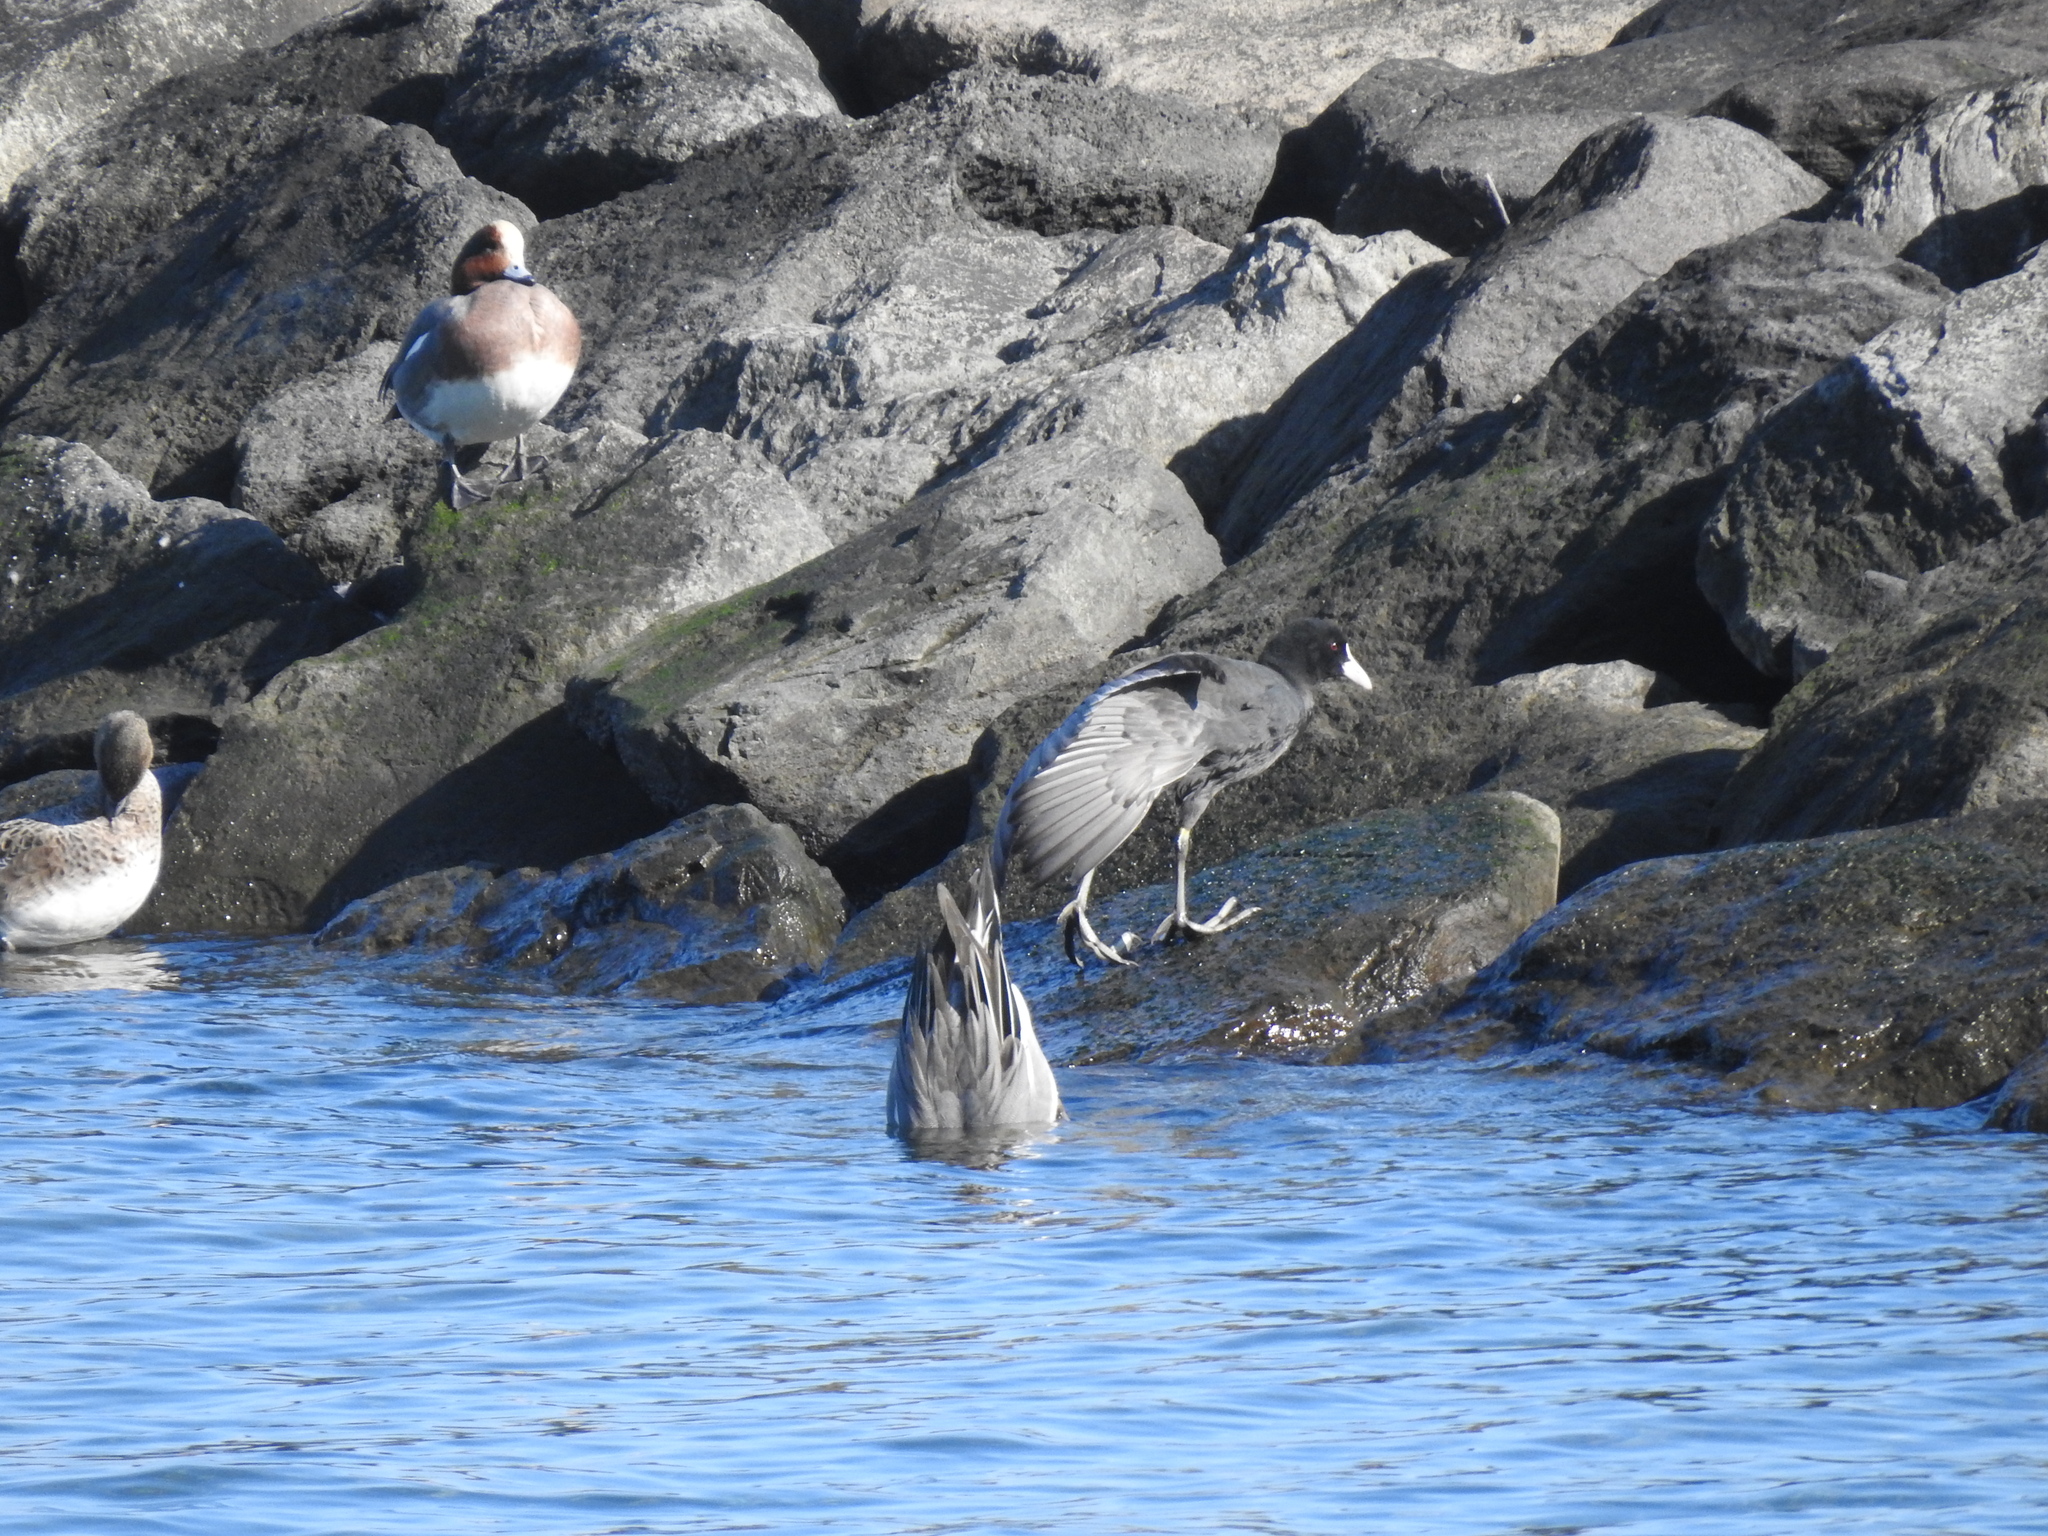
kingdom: Animalia
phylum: Chordata
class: Aves
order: Gruiformes
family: Rallidae
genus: Fulica
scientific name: Fulica atra
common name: Eurasian coot
